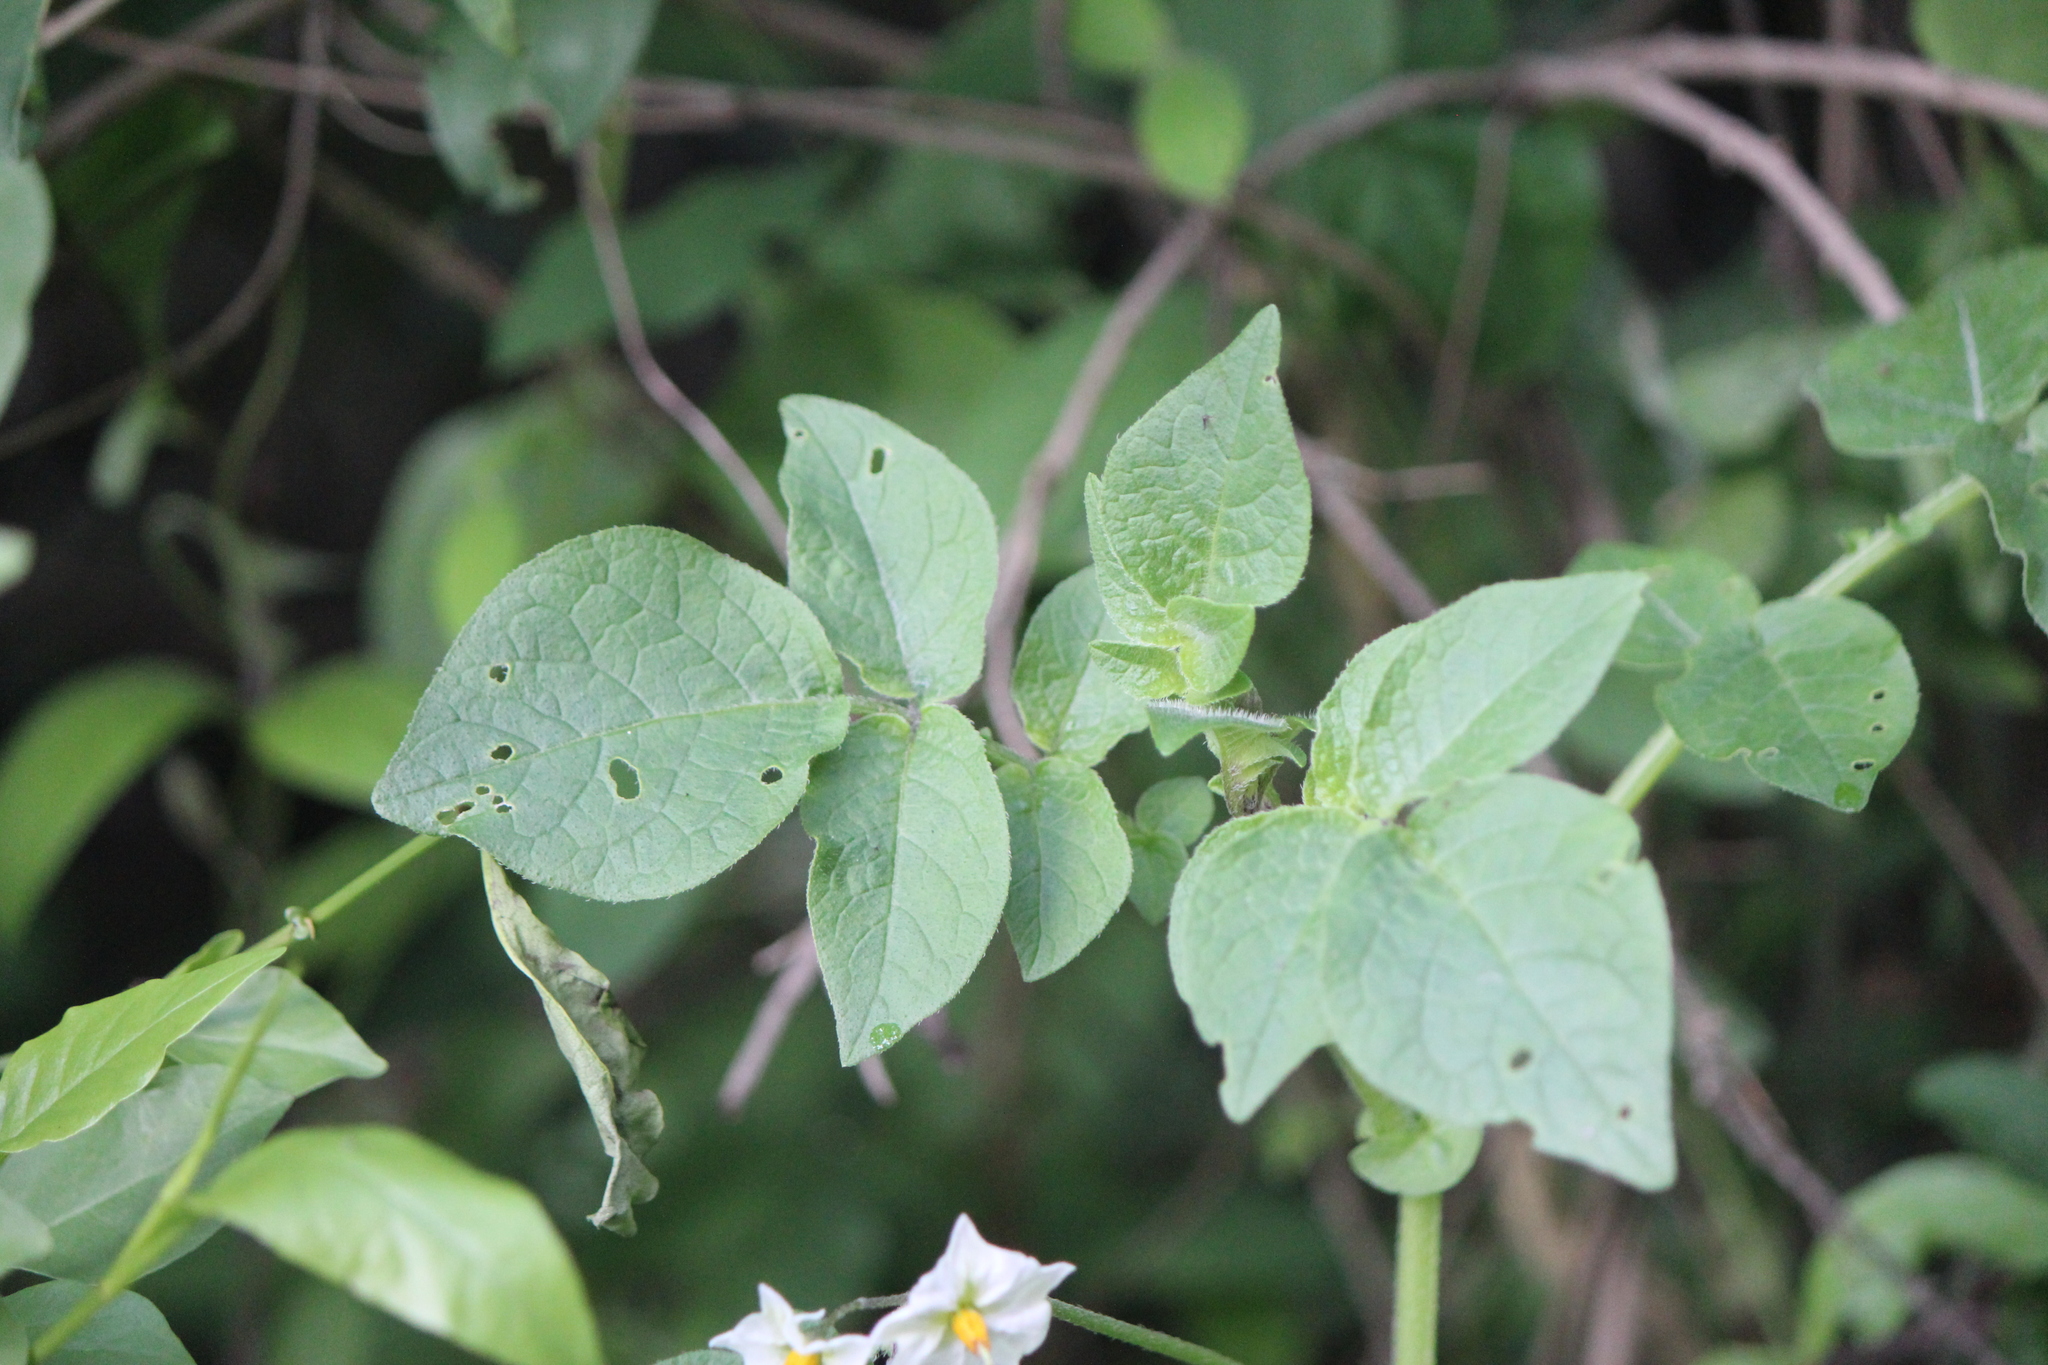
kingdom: Plantae
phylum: Tracheophyta
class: Magnoliopsida
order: Solanales
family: Solanaceae
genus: Solanum
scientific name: Solanum tuberosum
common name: Potato
